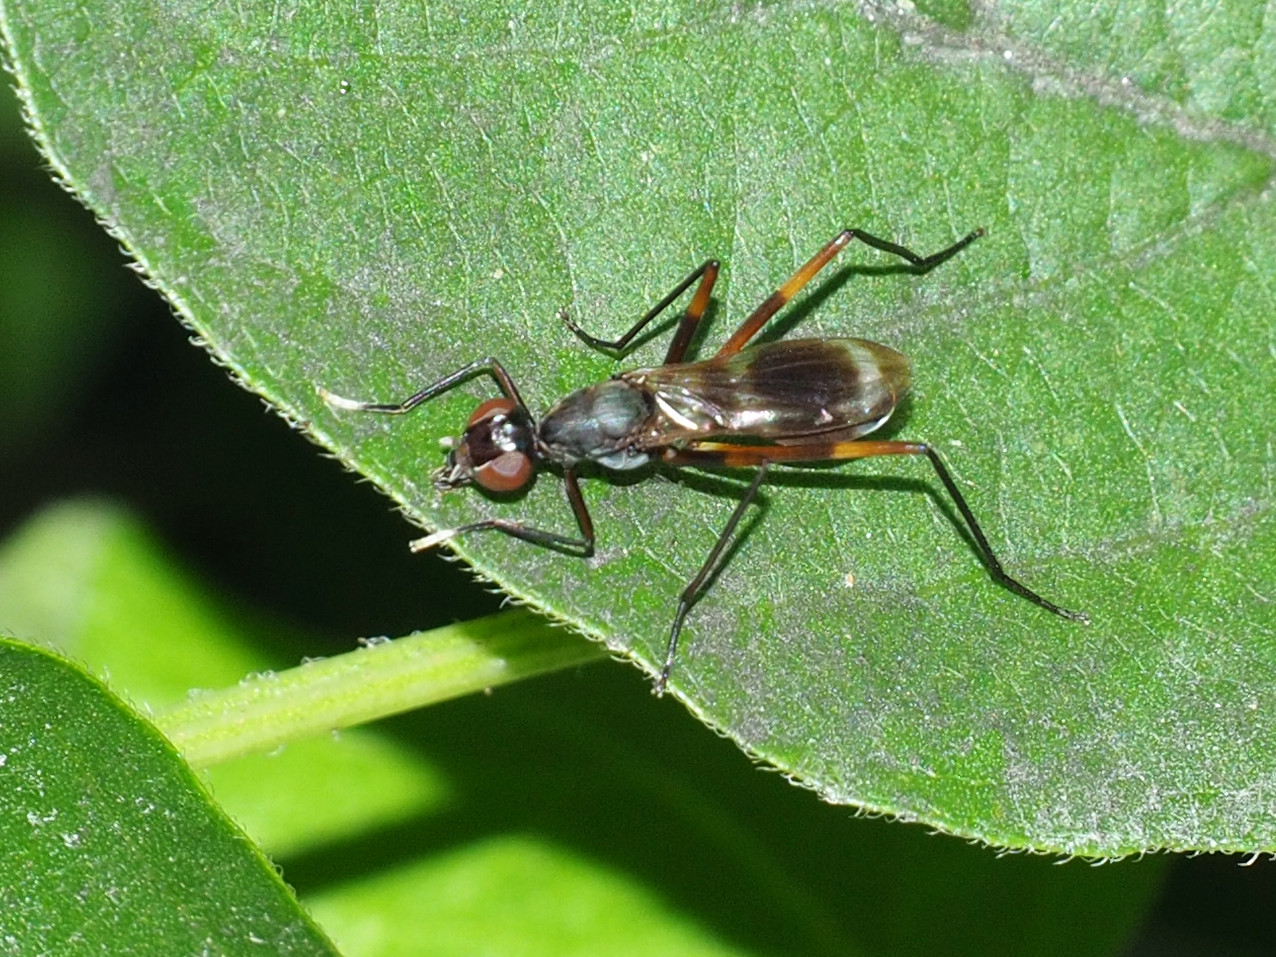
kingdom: Animalia
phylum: Arthropoda
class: Insecta
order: Diptera
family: Micropezidae
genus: Taeniaptera
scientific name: Taeniaptera trivittata
